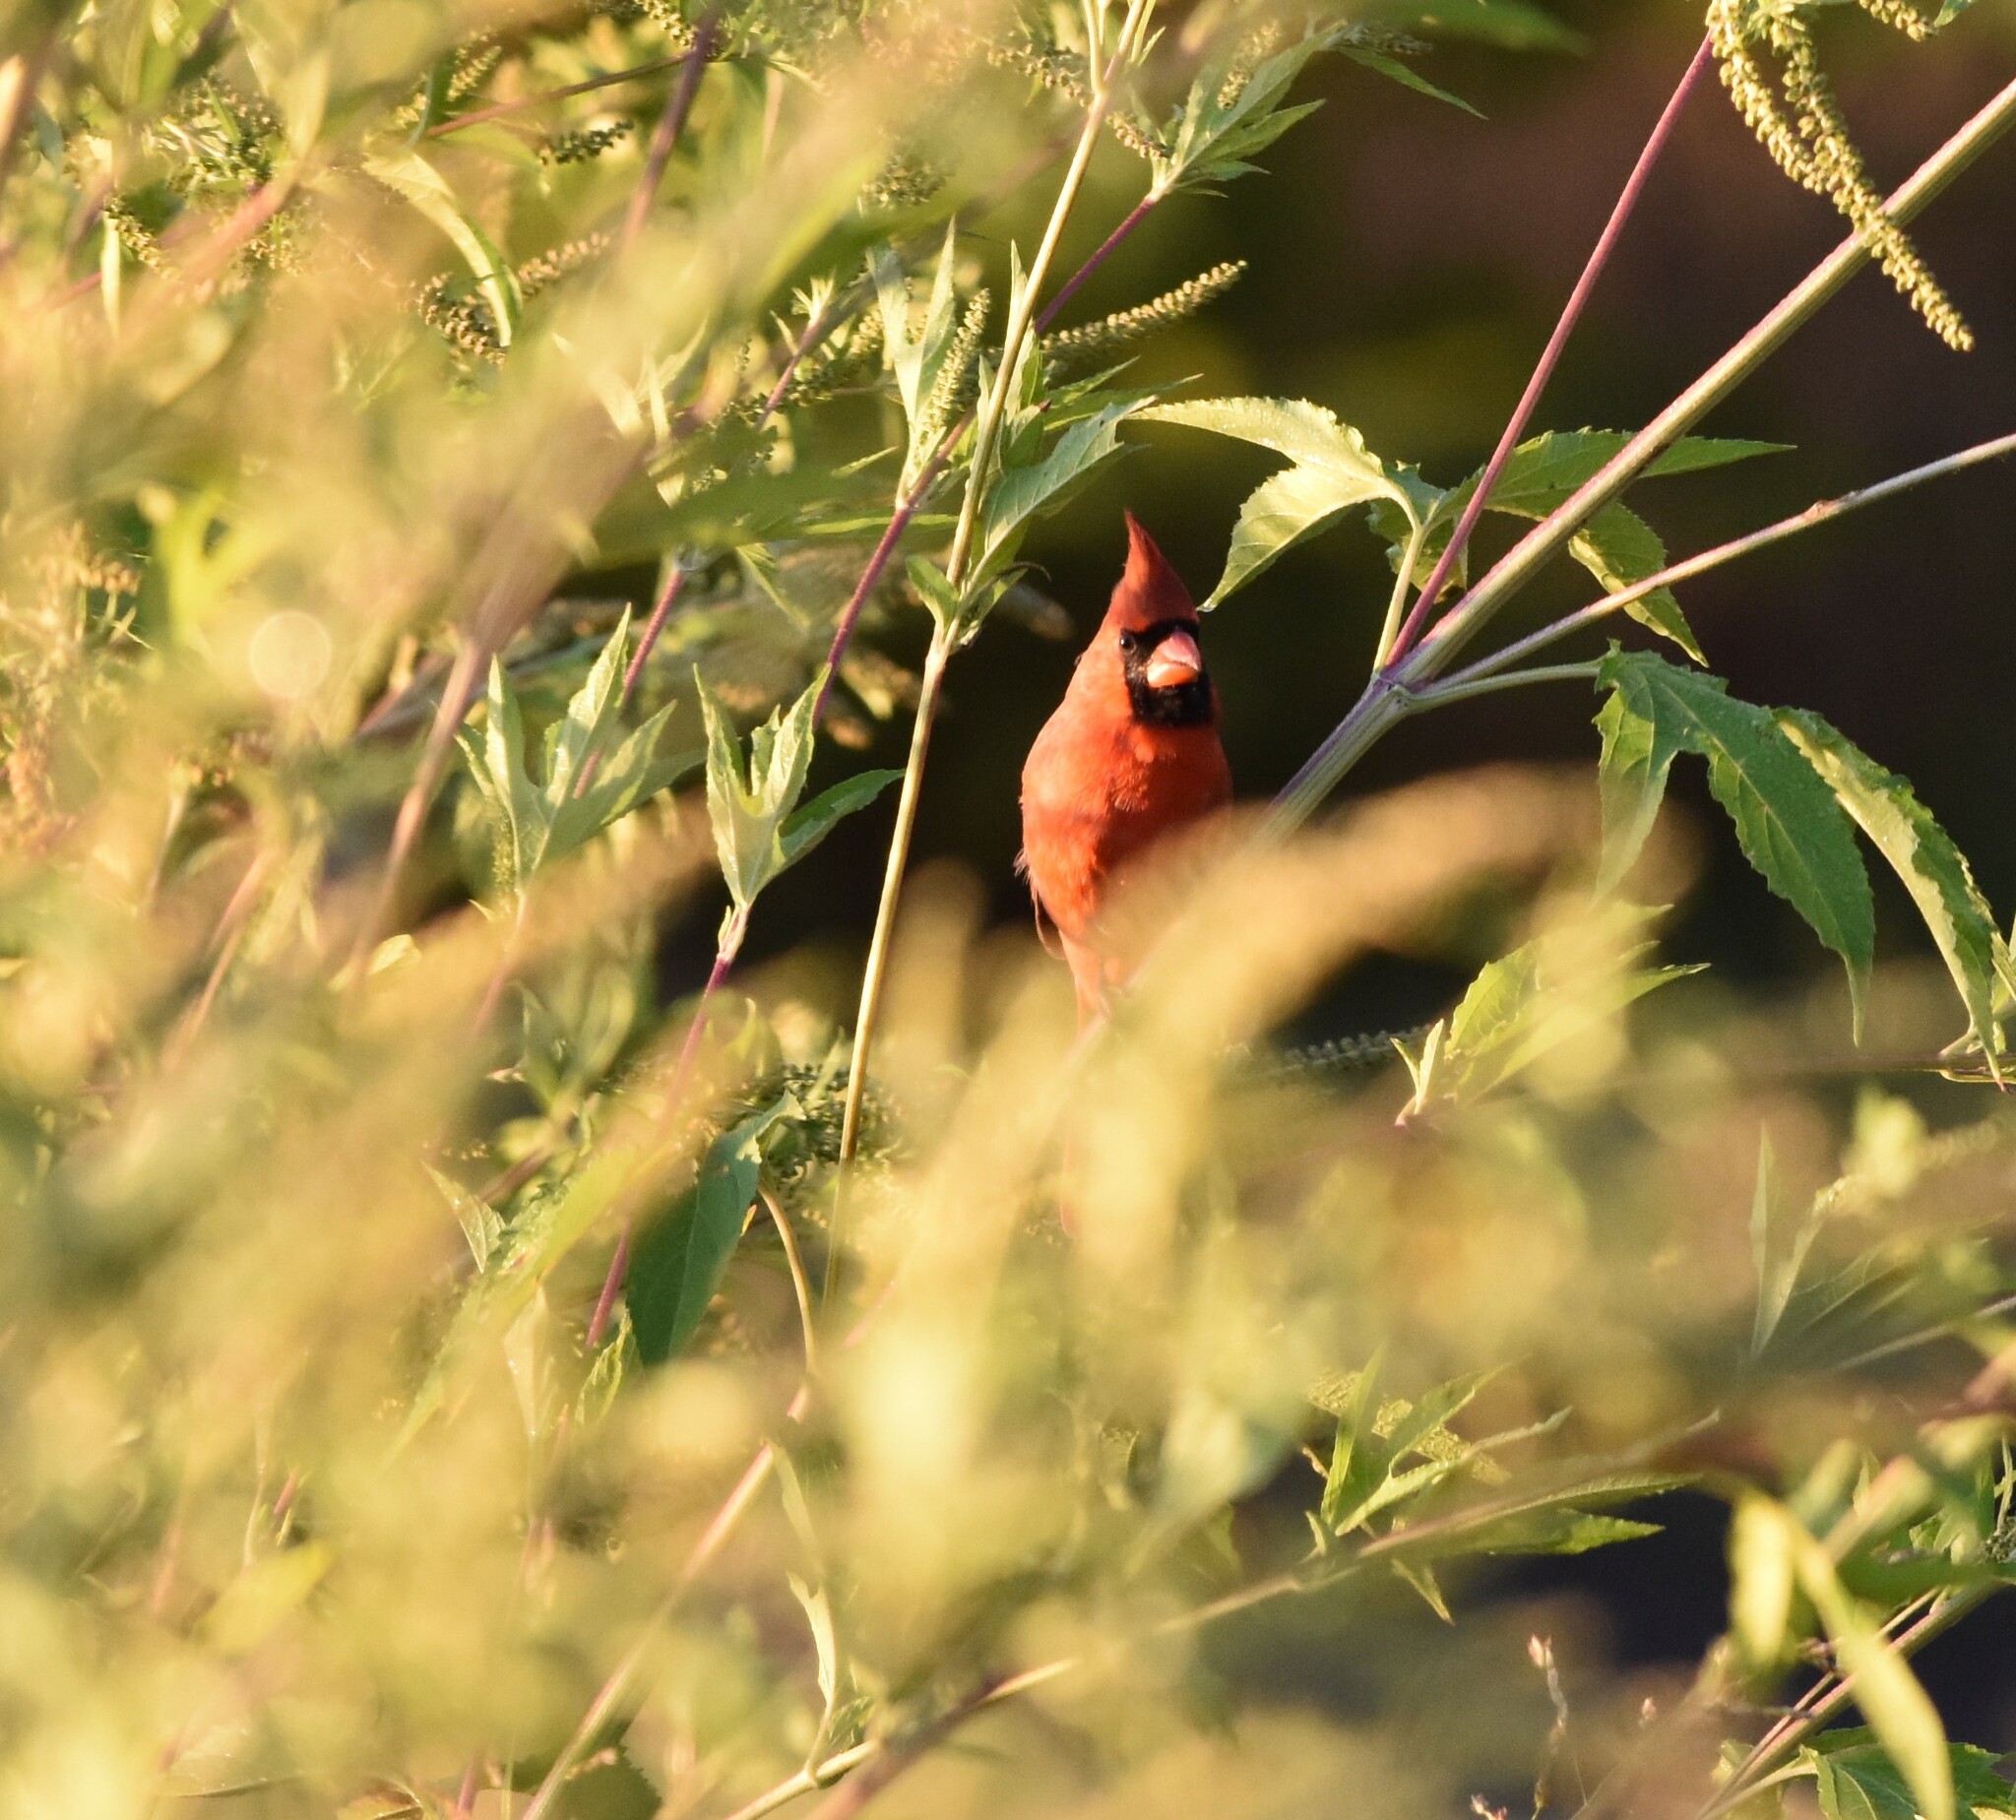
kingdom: Animalia
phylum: Chordata
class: Aves
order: Passeriformes
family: Cardinalidae
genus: Cardinalis
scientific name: Cardinalis cardinalis
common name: Northern cardinal
